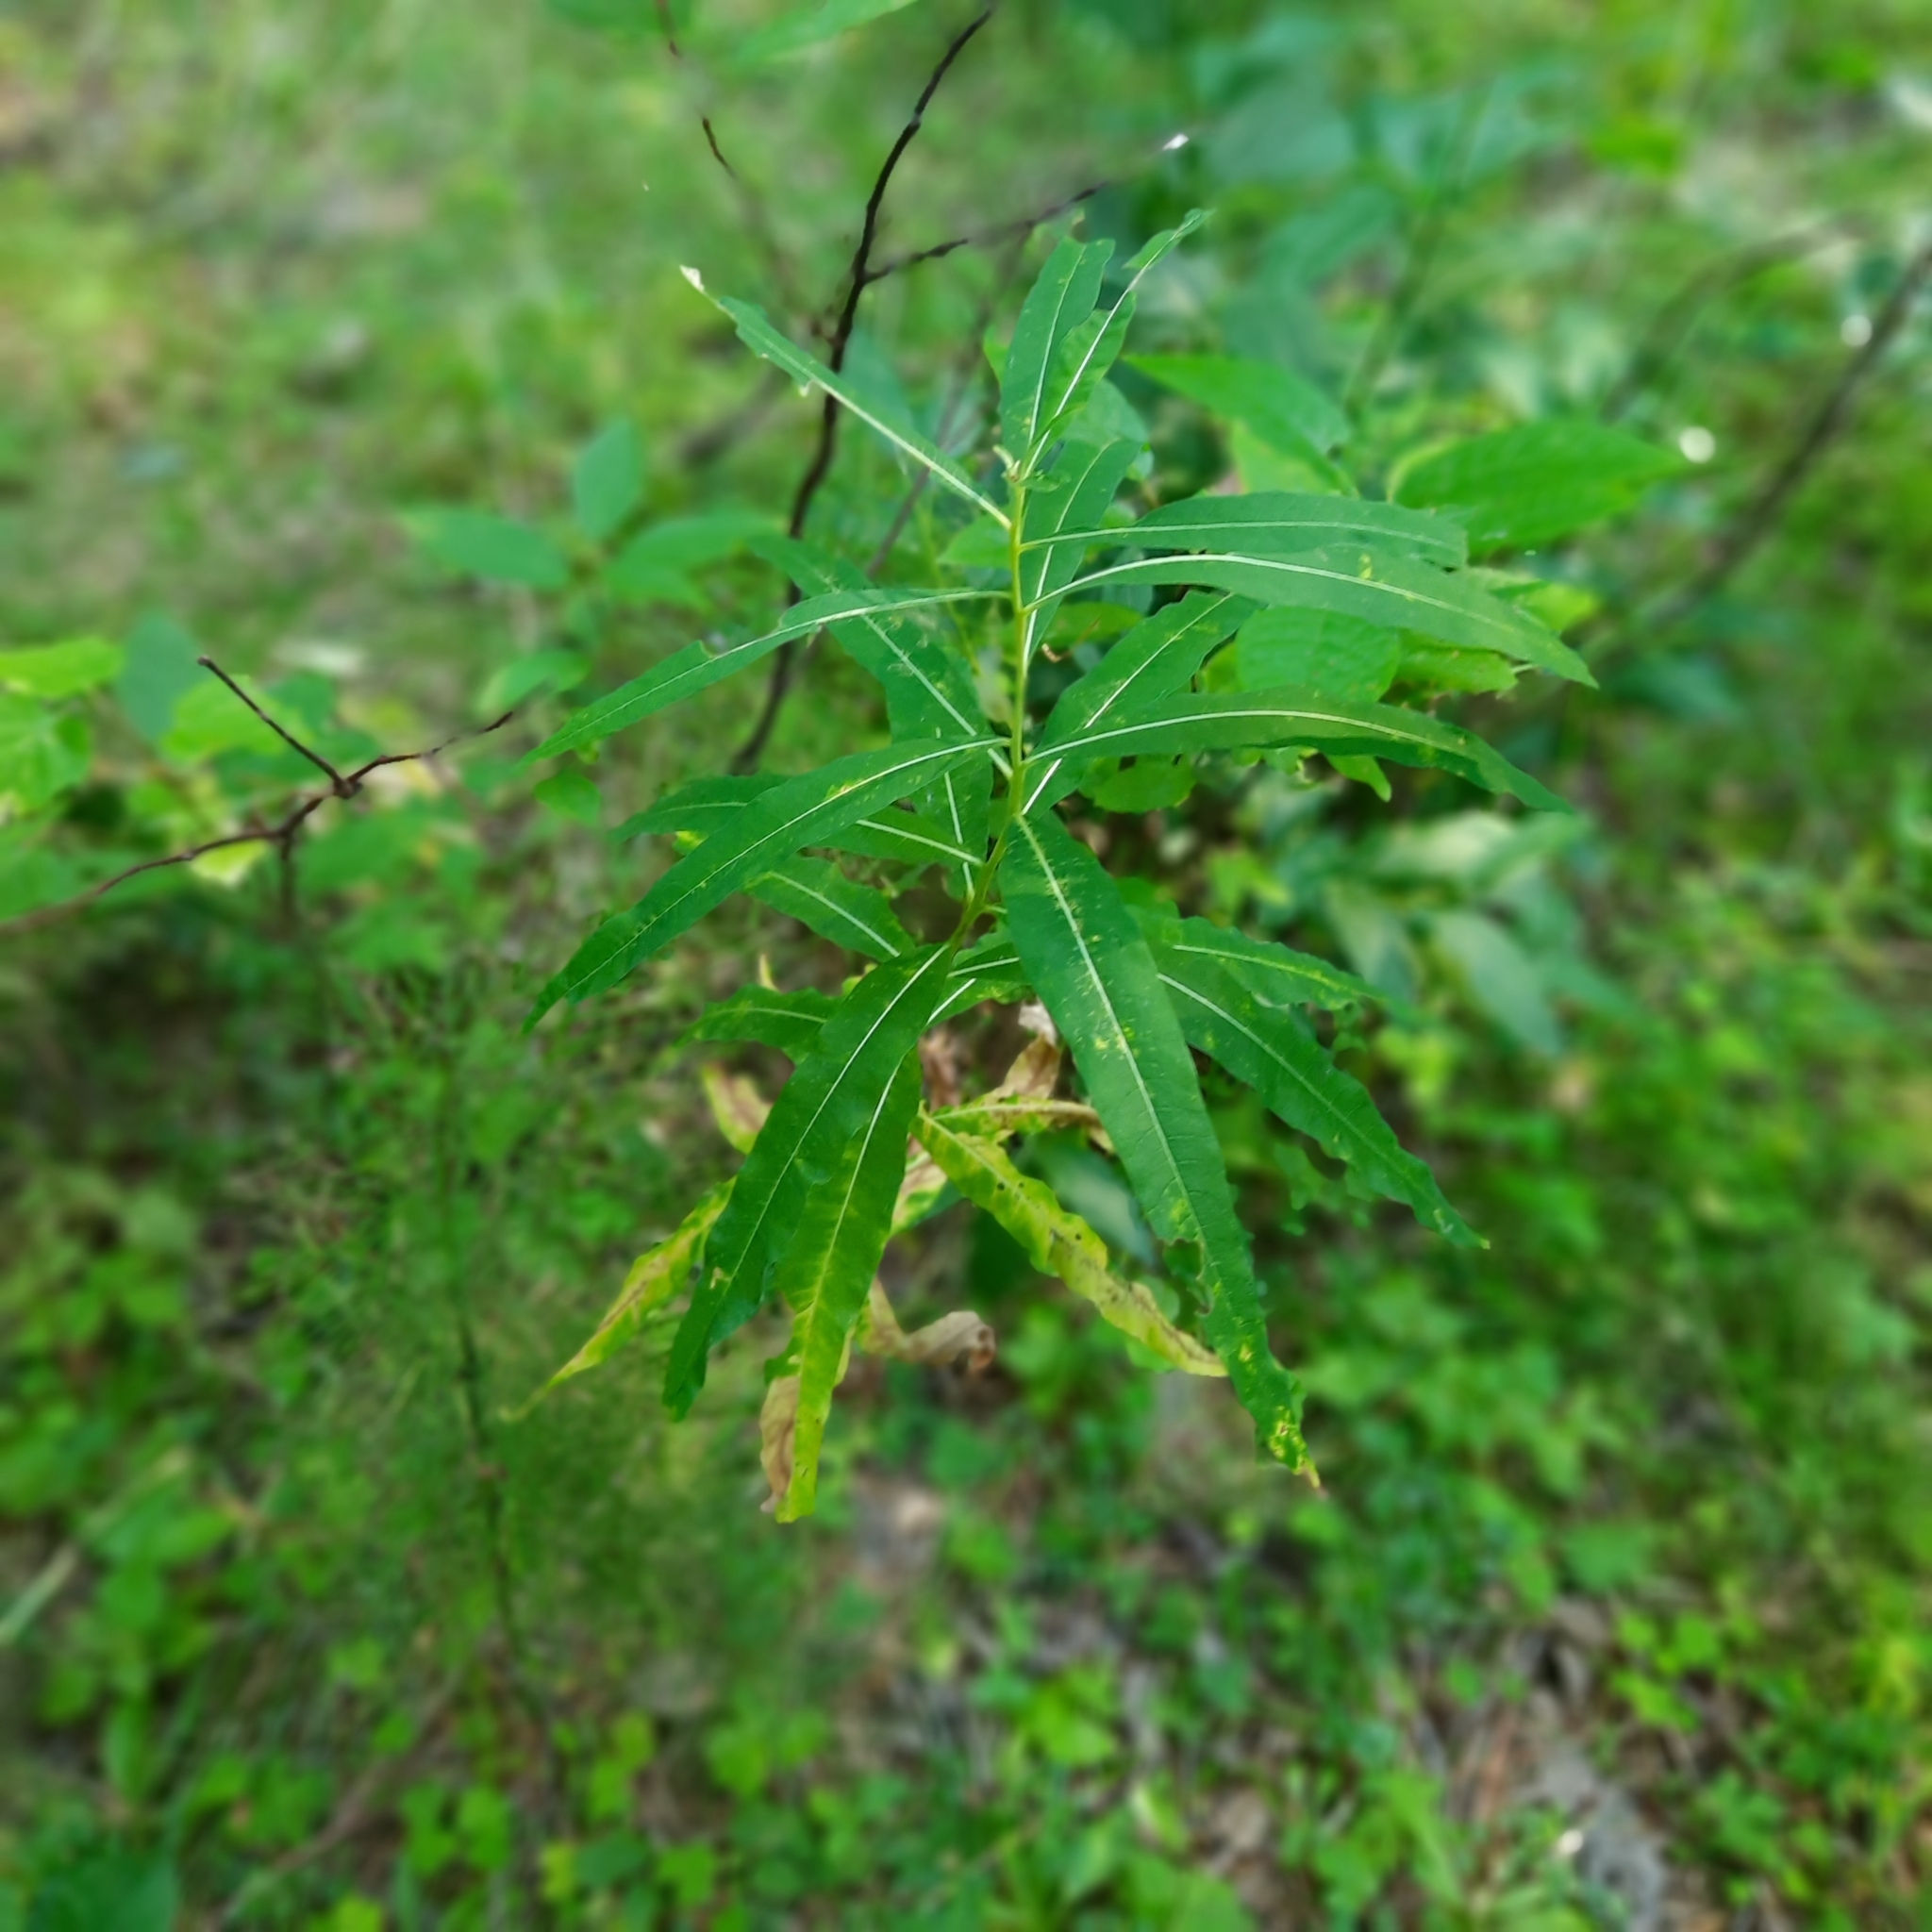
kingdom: Plantae
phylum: Tracheophyta
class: Magnoliopsida
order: Myrtales
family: Onagraceae
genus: Chamaenerion
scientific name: Chamaenerion angustifolium
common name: Fireweed
